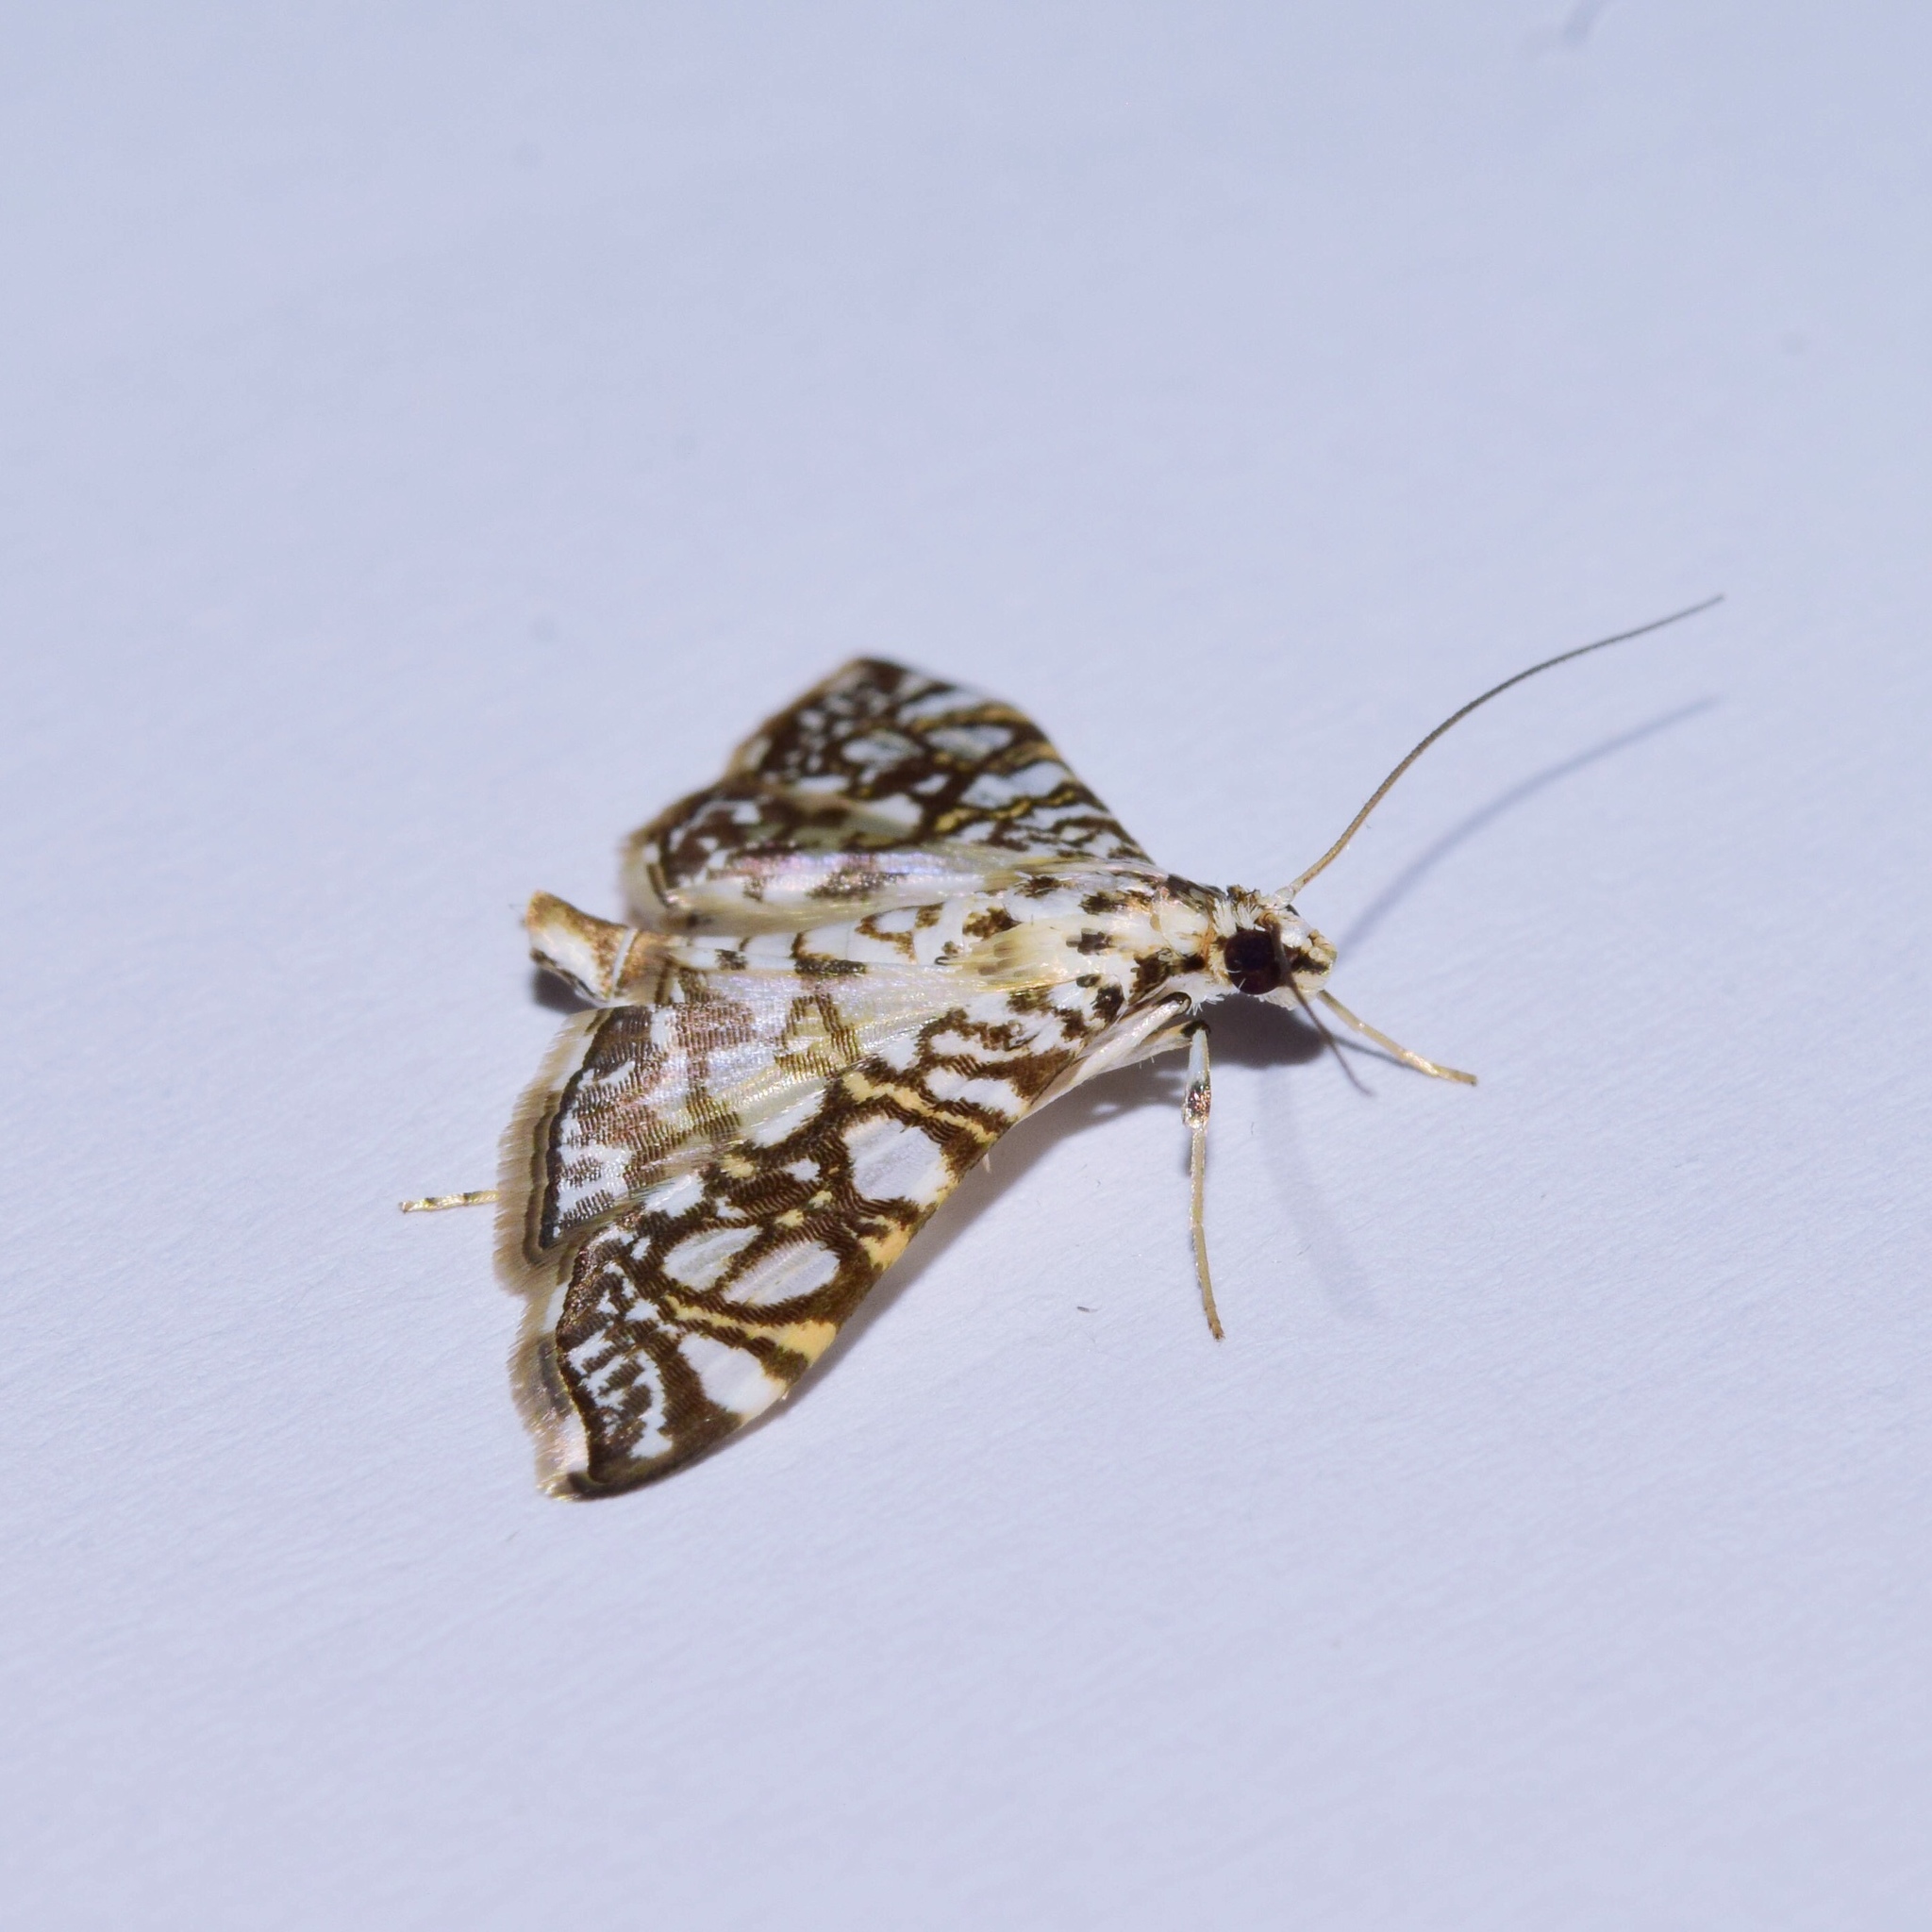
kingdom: Animalia
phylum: Arthropoda
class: Insecta
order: Lepidoptera
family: Crambidae
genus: Glyphodes
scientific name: Glyphodes onychinalis
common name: Swan plant moth
